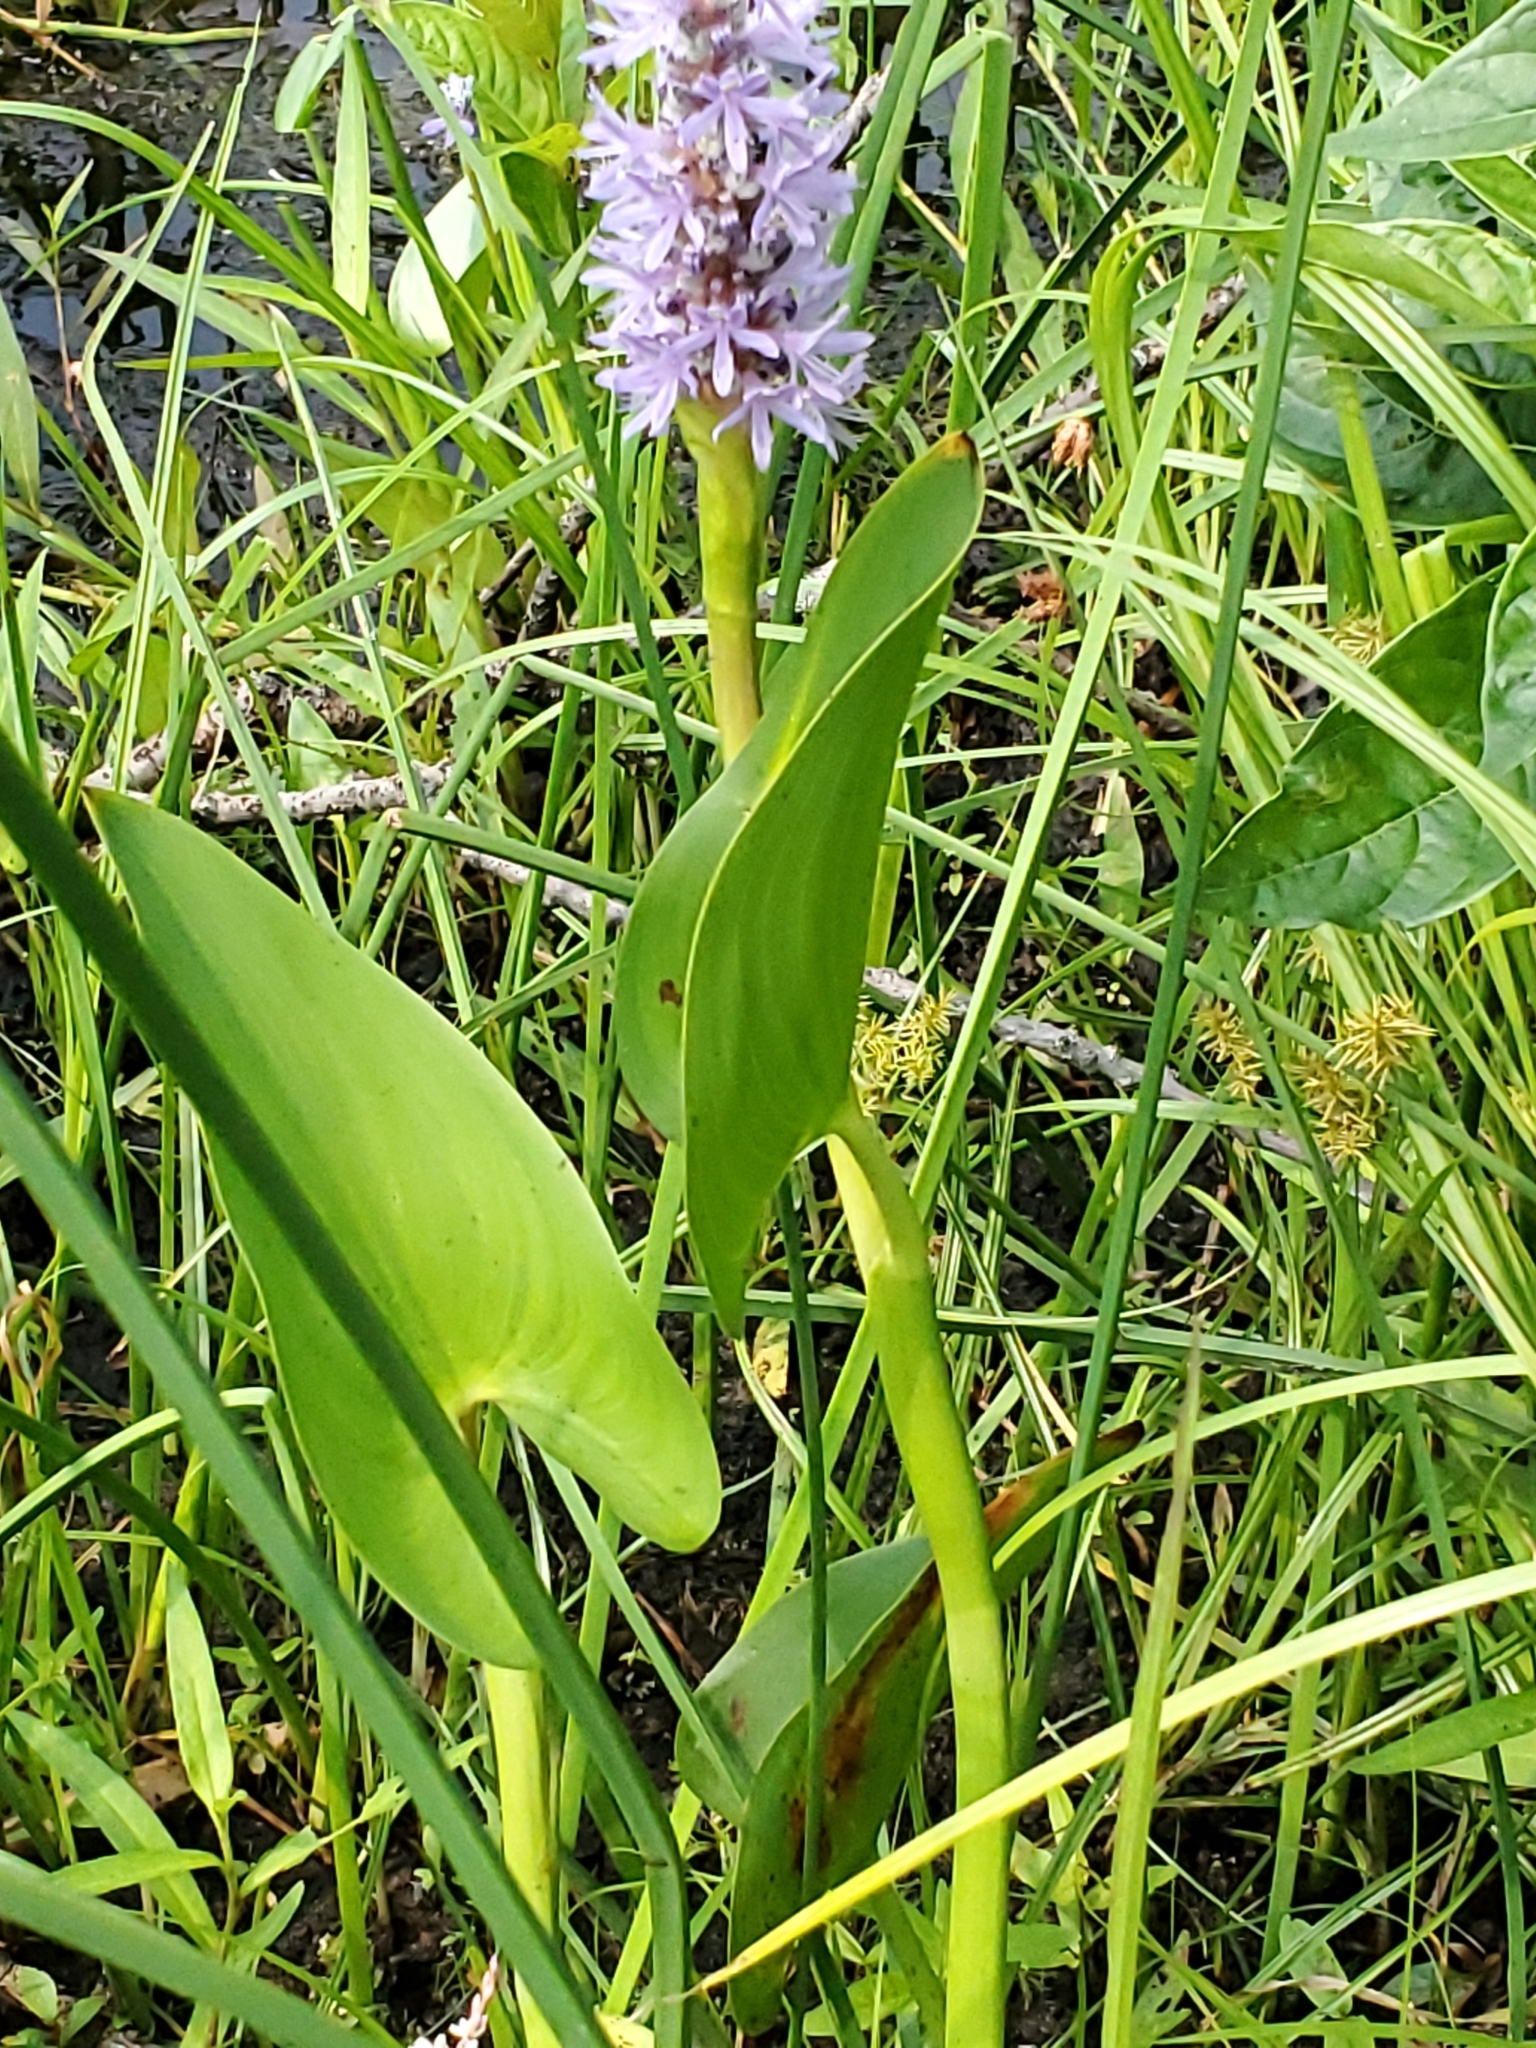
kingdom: Plantae
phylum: Tracheophyta
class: Liliopsida
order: Commelinales
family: Pontederiaceae
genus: Pontederia
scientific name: Pontederia cordata
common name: Pickerelweed
